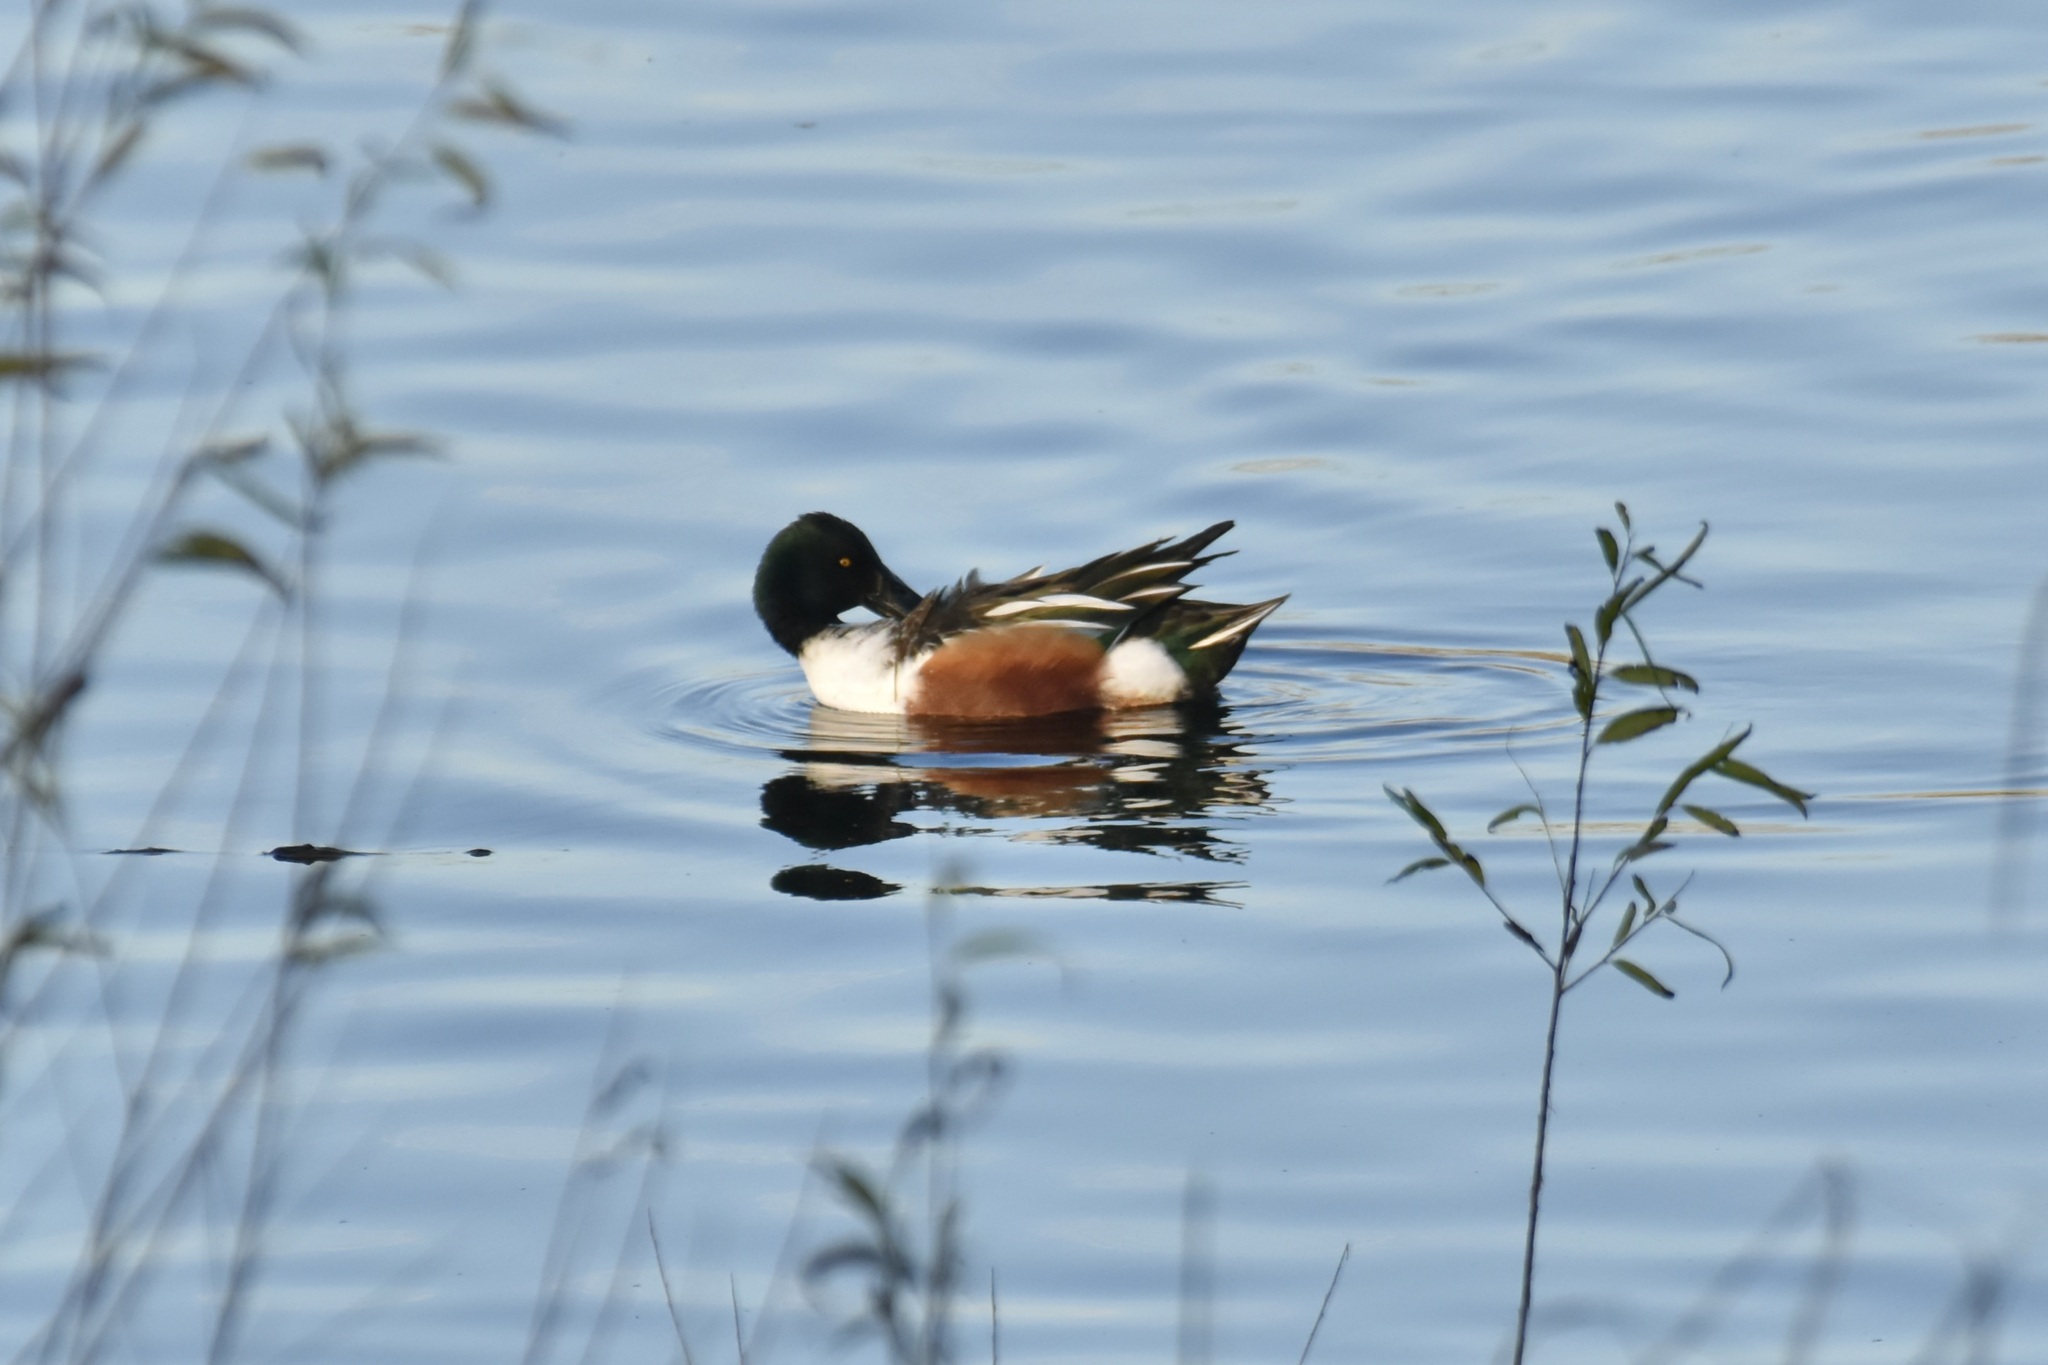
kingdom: Animalia
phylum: Chordata
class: Aves
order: Anseriformes
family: Anatidae
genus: Spatula
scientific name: Spatula clypeata
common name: Northern shoveler
